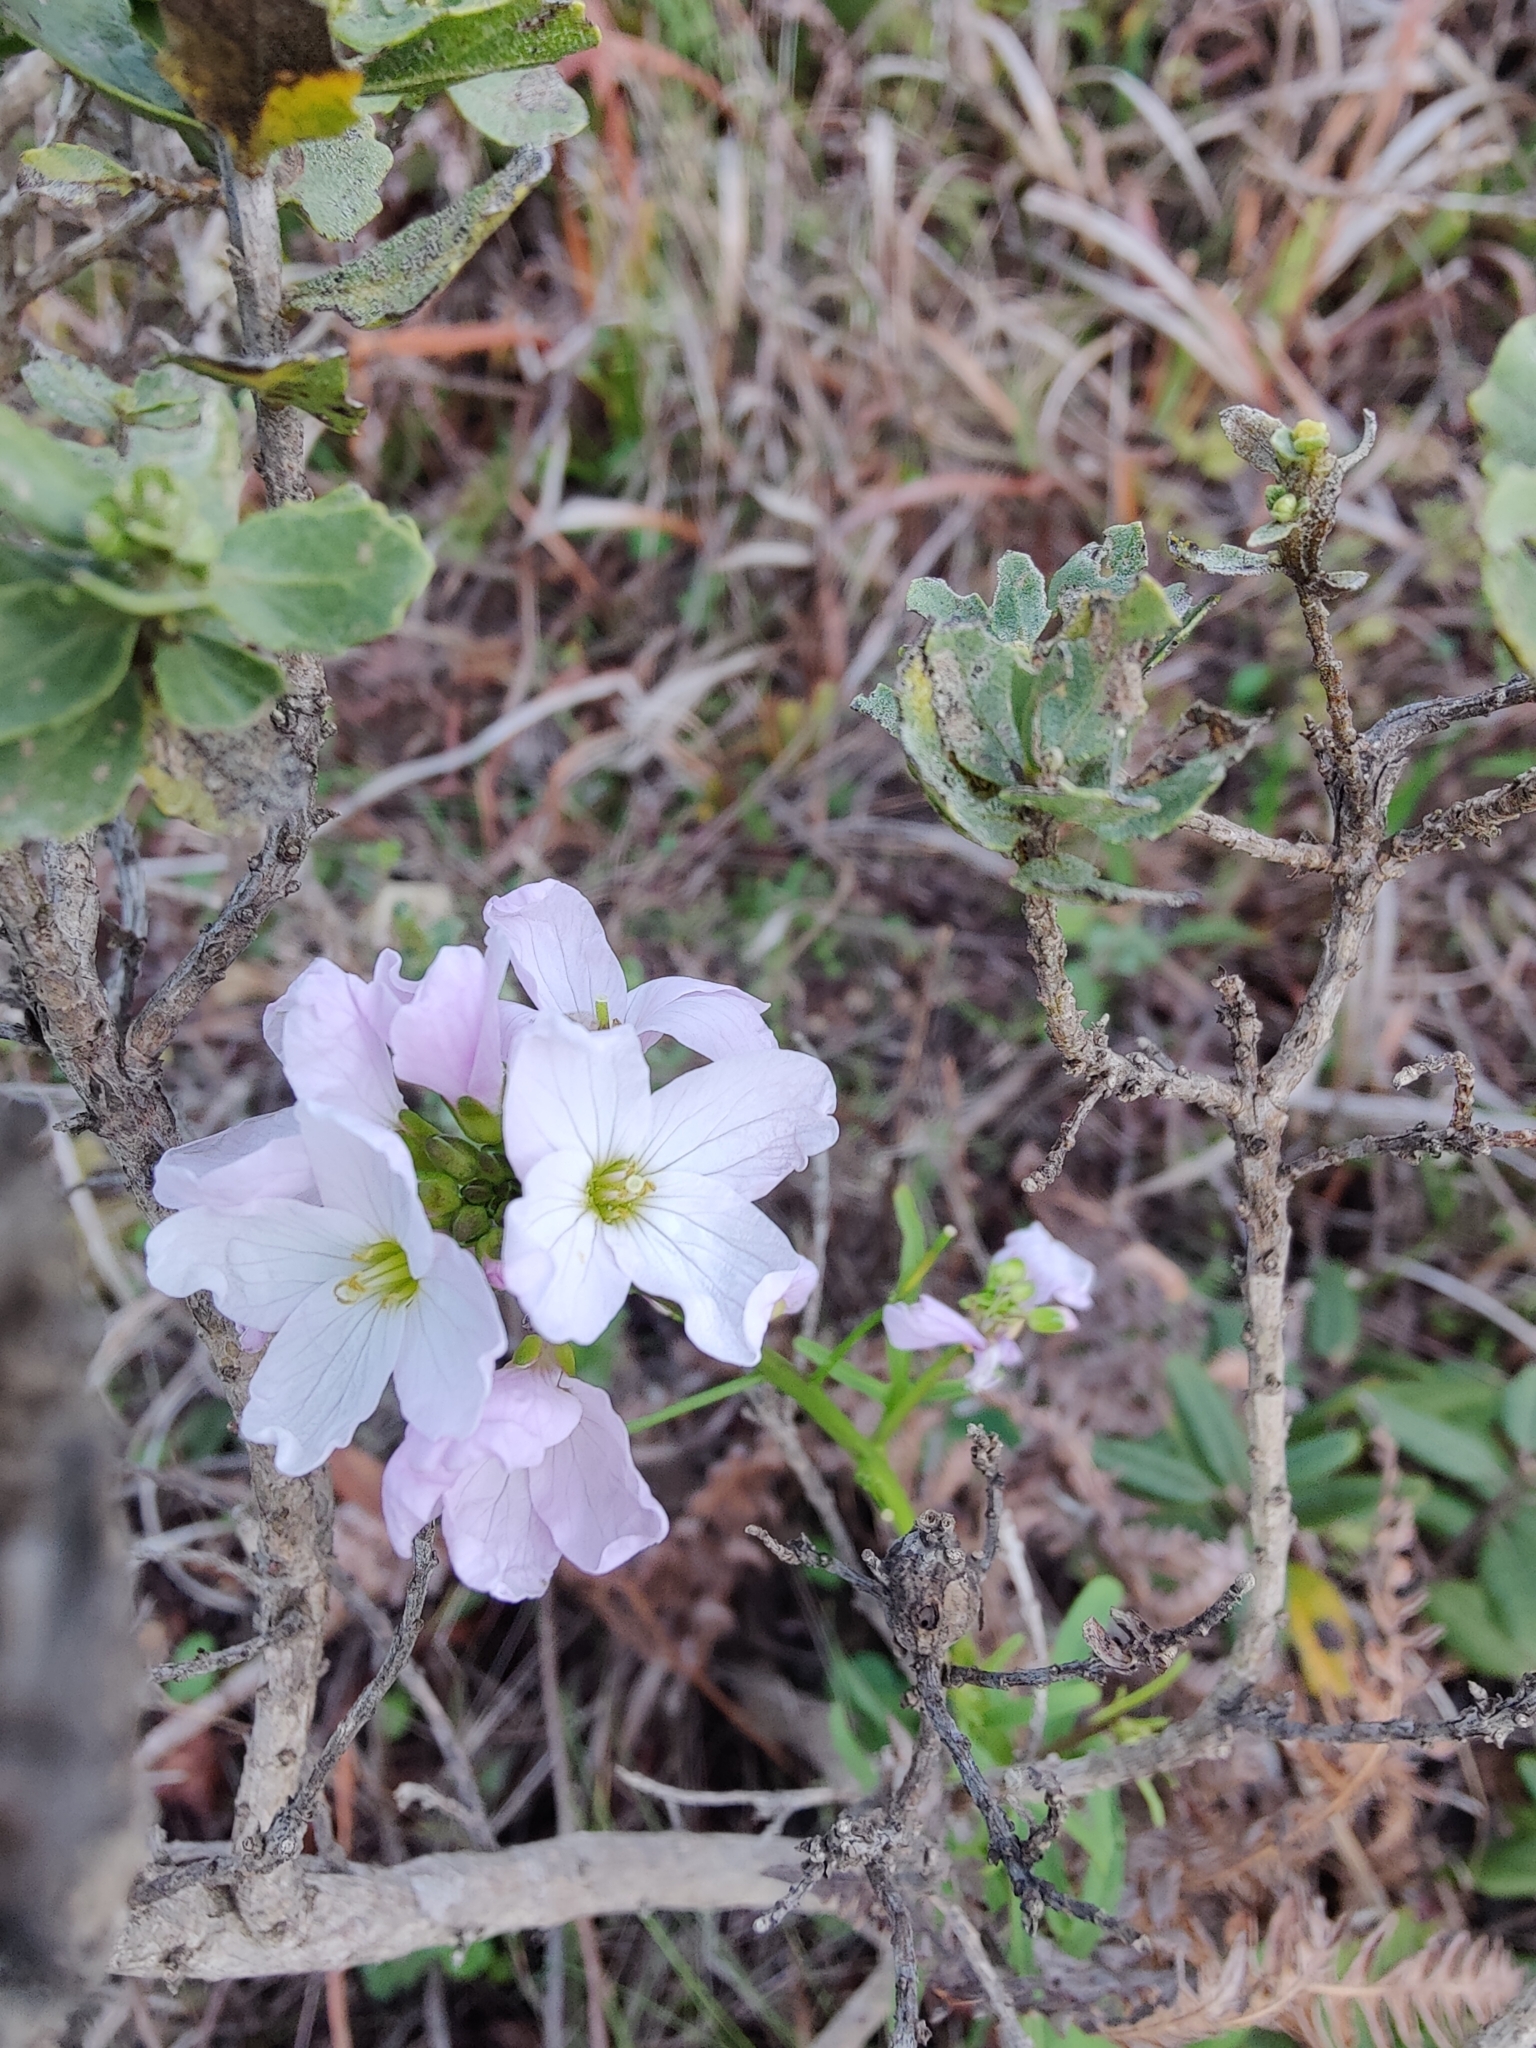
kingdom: Plantae
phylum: Tracheophyta
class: Magnoliopsida
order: Brassicales
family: Brassicaceae
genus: Cardamine
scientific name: Cardamine californica
